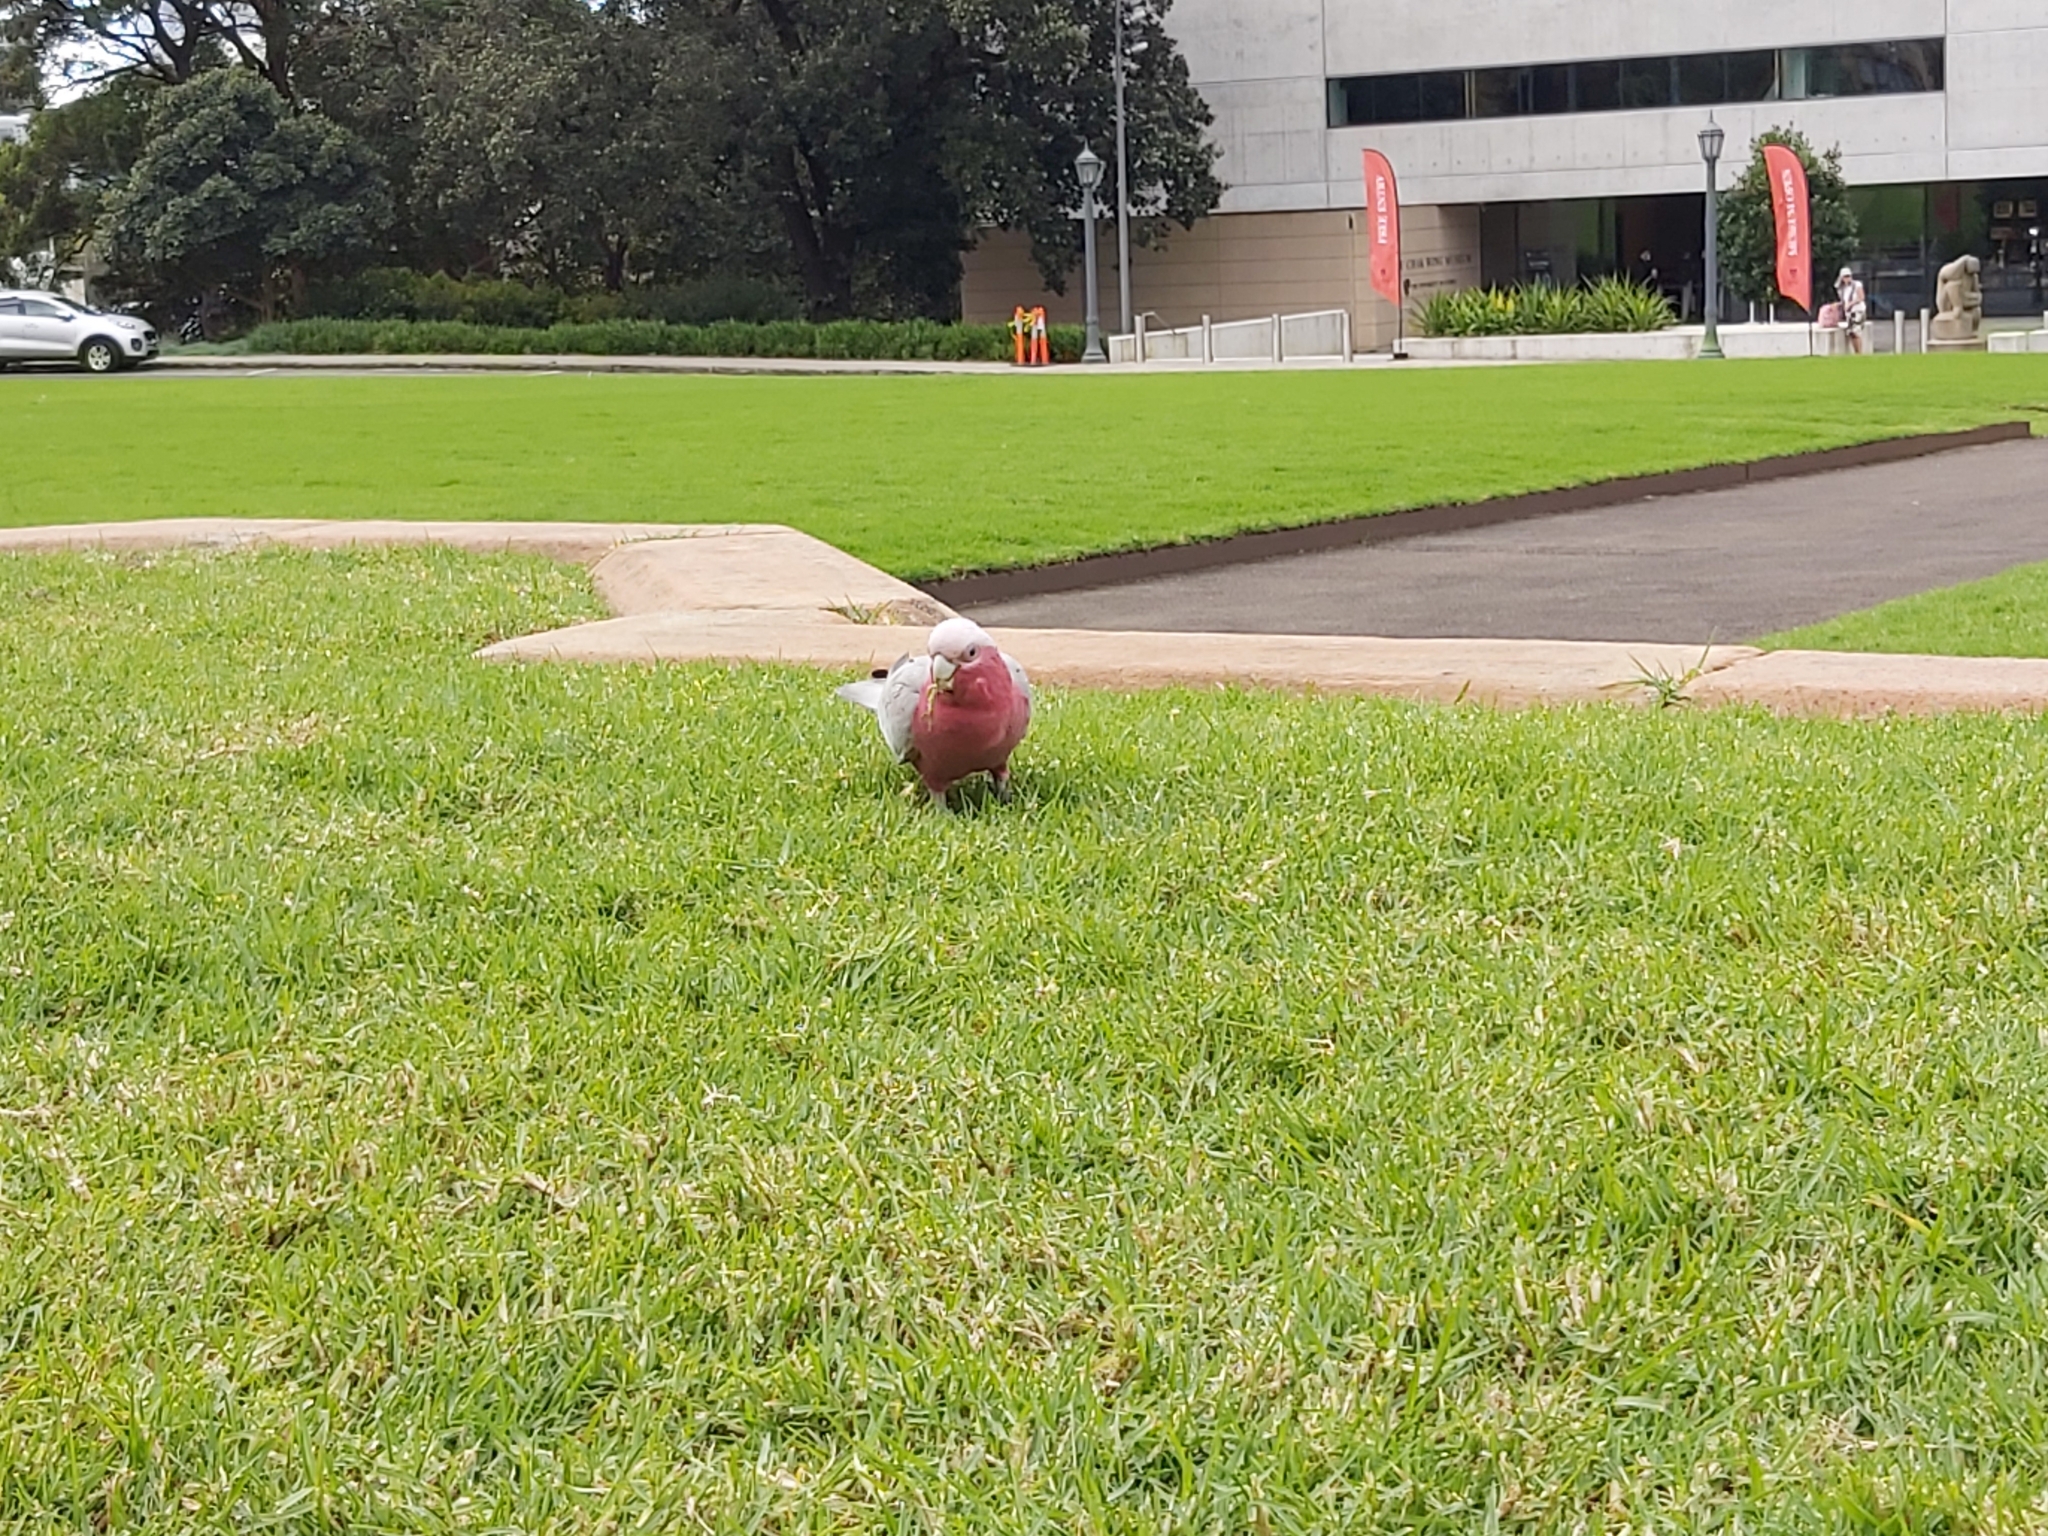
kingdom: Animalia
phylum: Chordata
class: Aves
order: Psittaciformes
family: Psittacidae
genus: Eolophus
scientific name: Eolophus roseicapilla
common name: Galah
